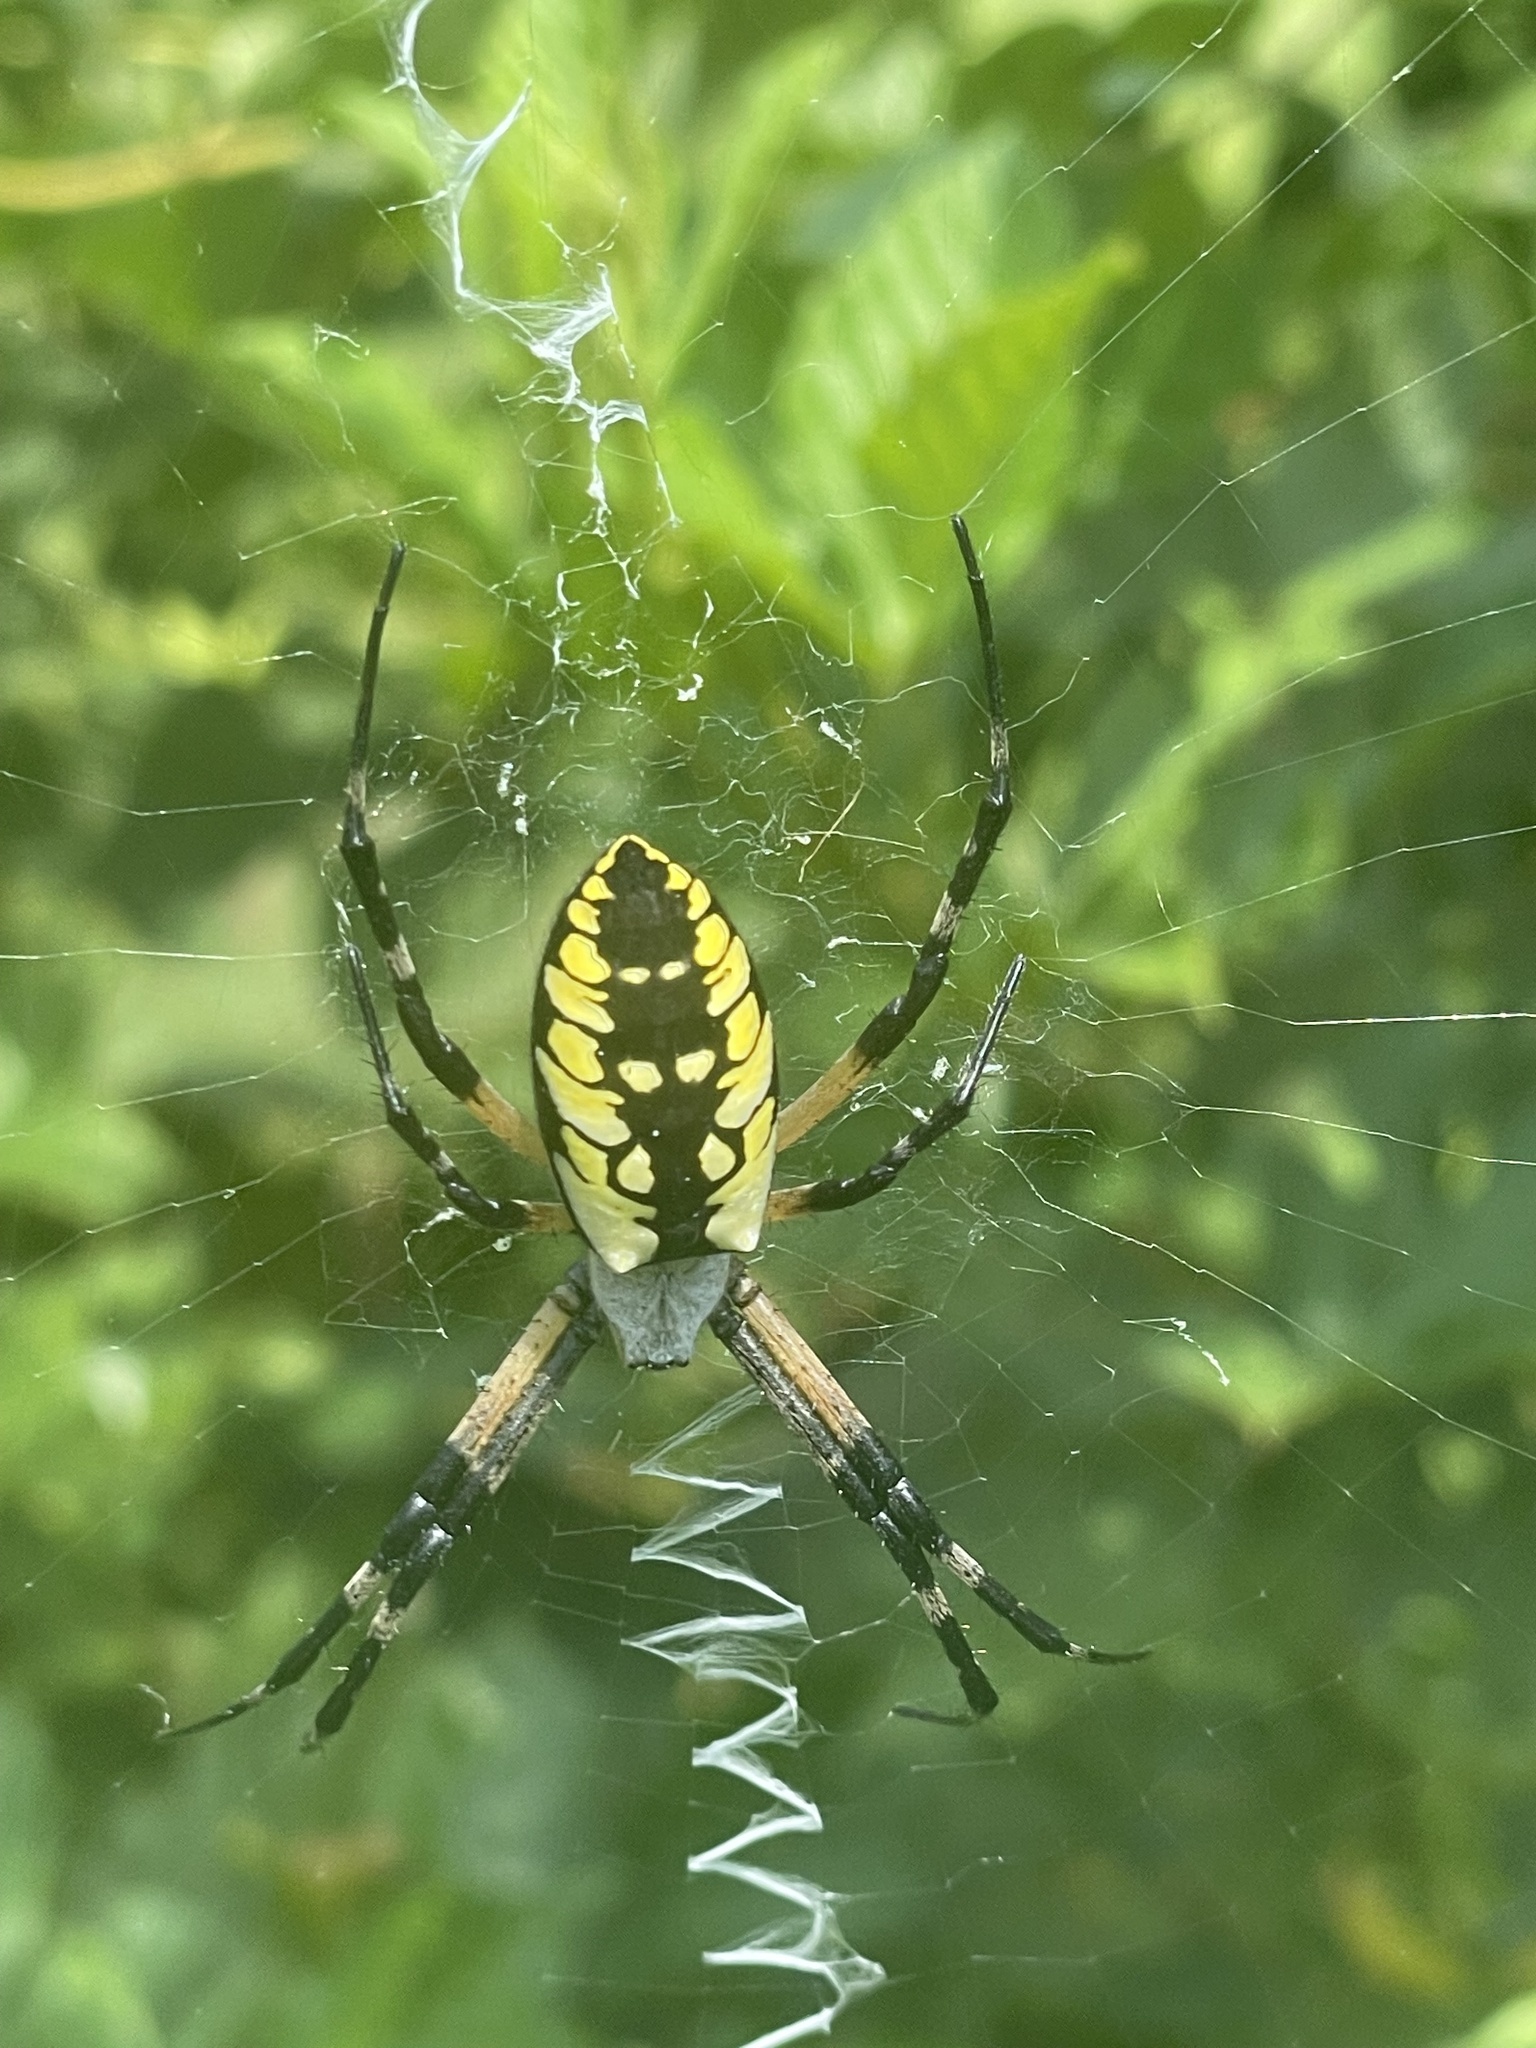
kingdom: Animalia
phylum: Arthropoda
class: Arachnida
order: Araneae
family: Araneidae
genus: Argiope
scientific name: Argiope aurantia
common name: Orb weavers
